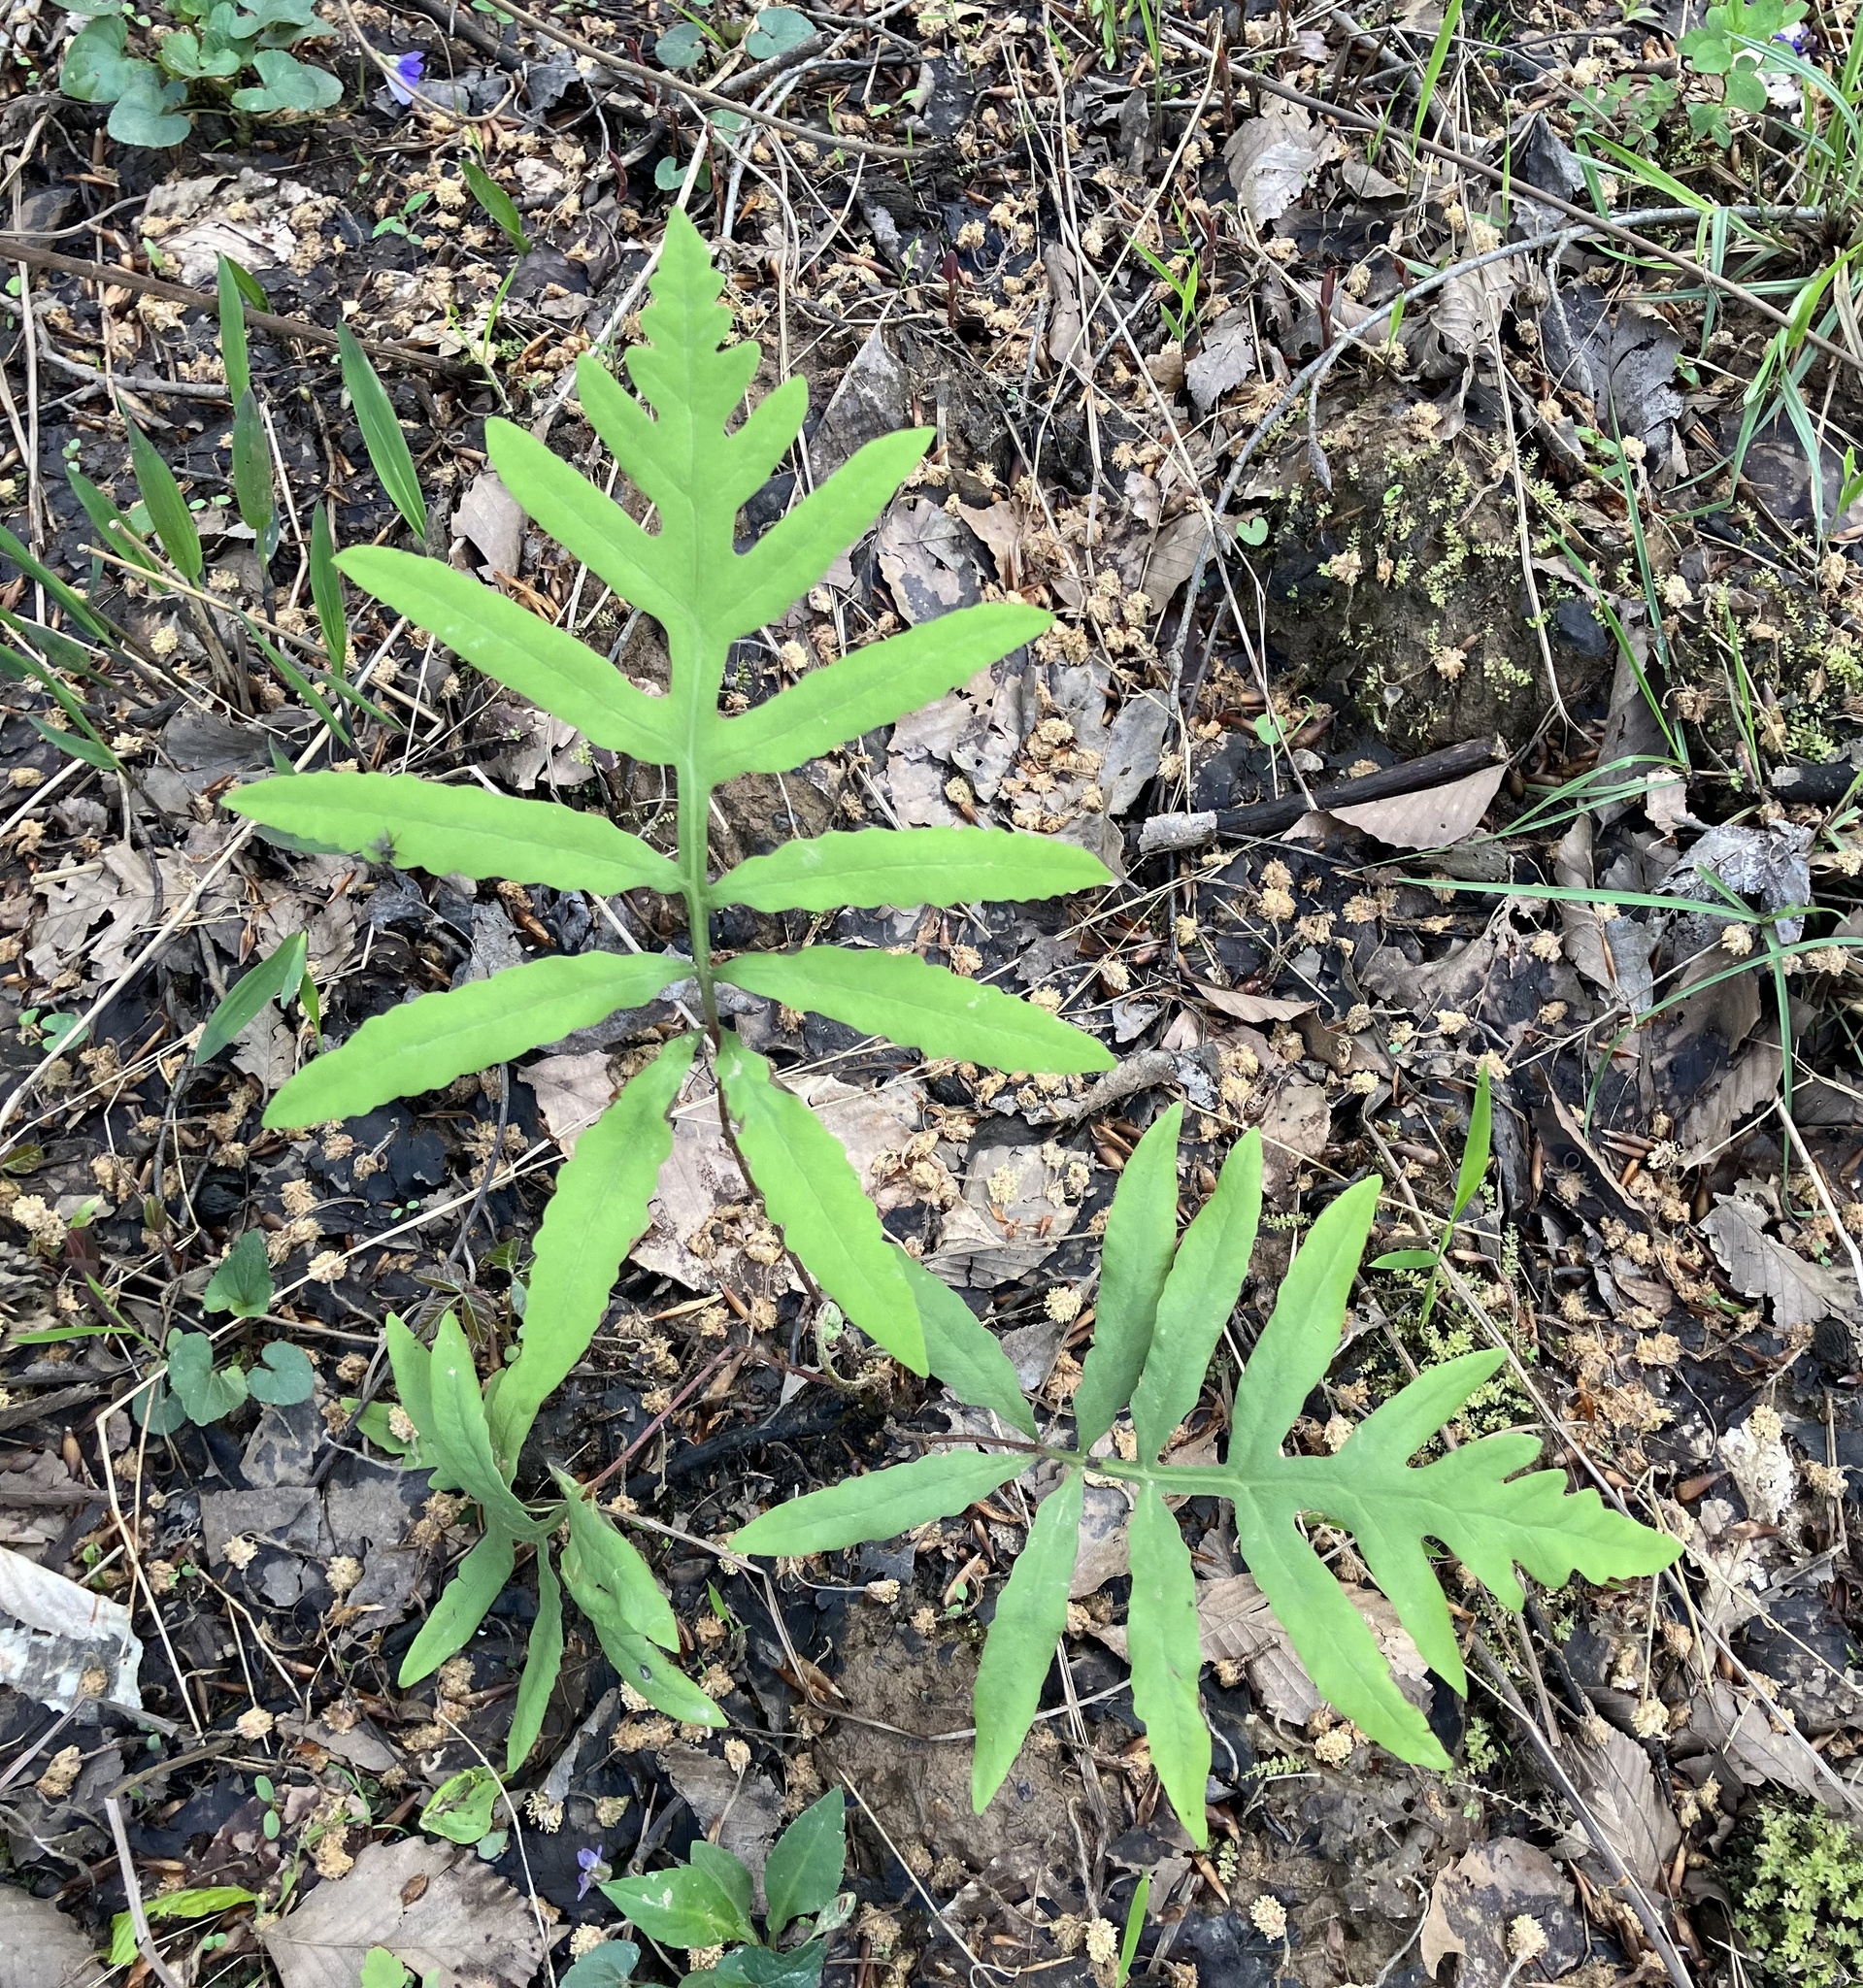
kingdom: Plantae
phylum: Tracheophyta
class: Polypodiopsida
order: Polypodiales
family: Onocleaceae
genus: Onoclea
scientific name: Onoclea sensibilis
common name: Sensitive fern
